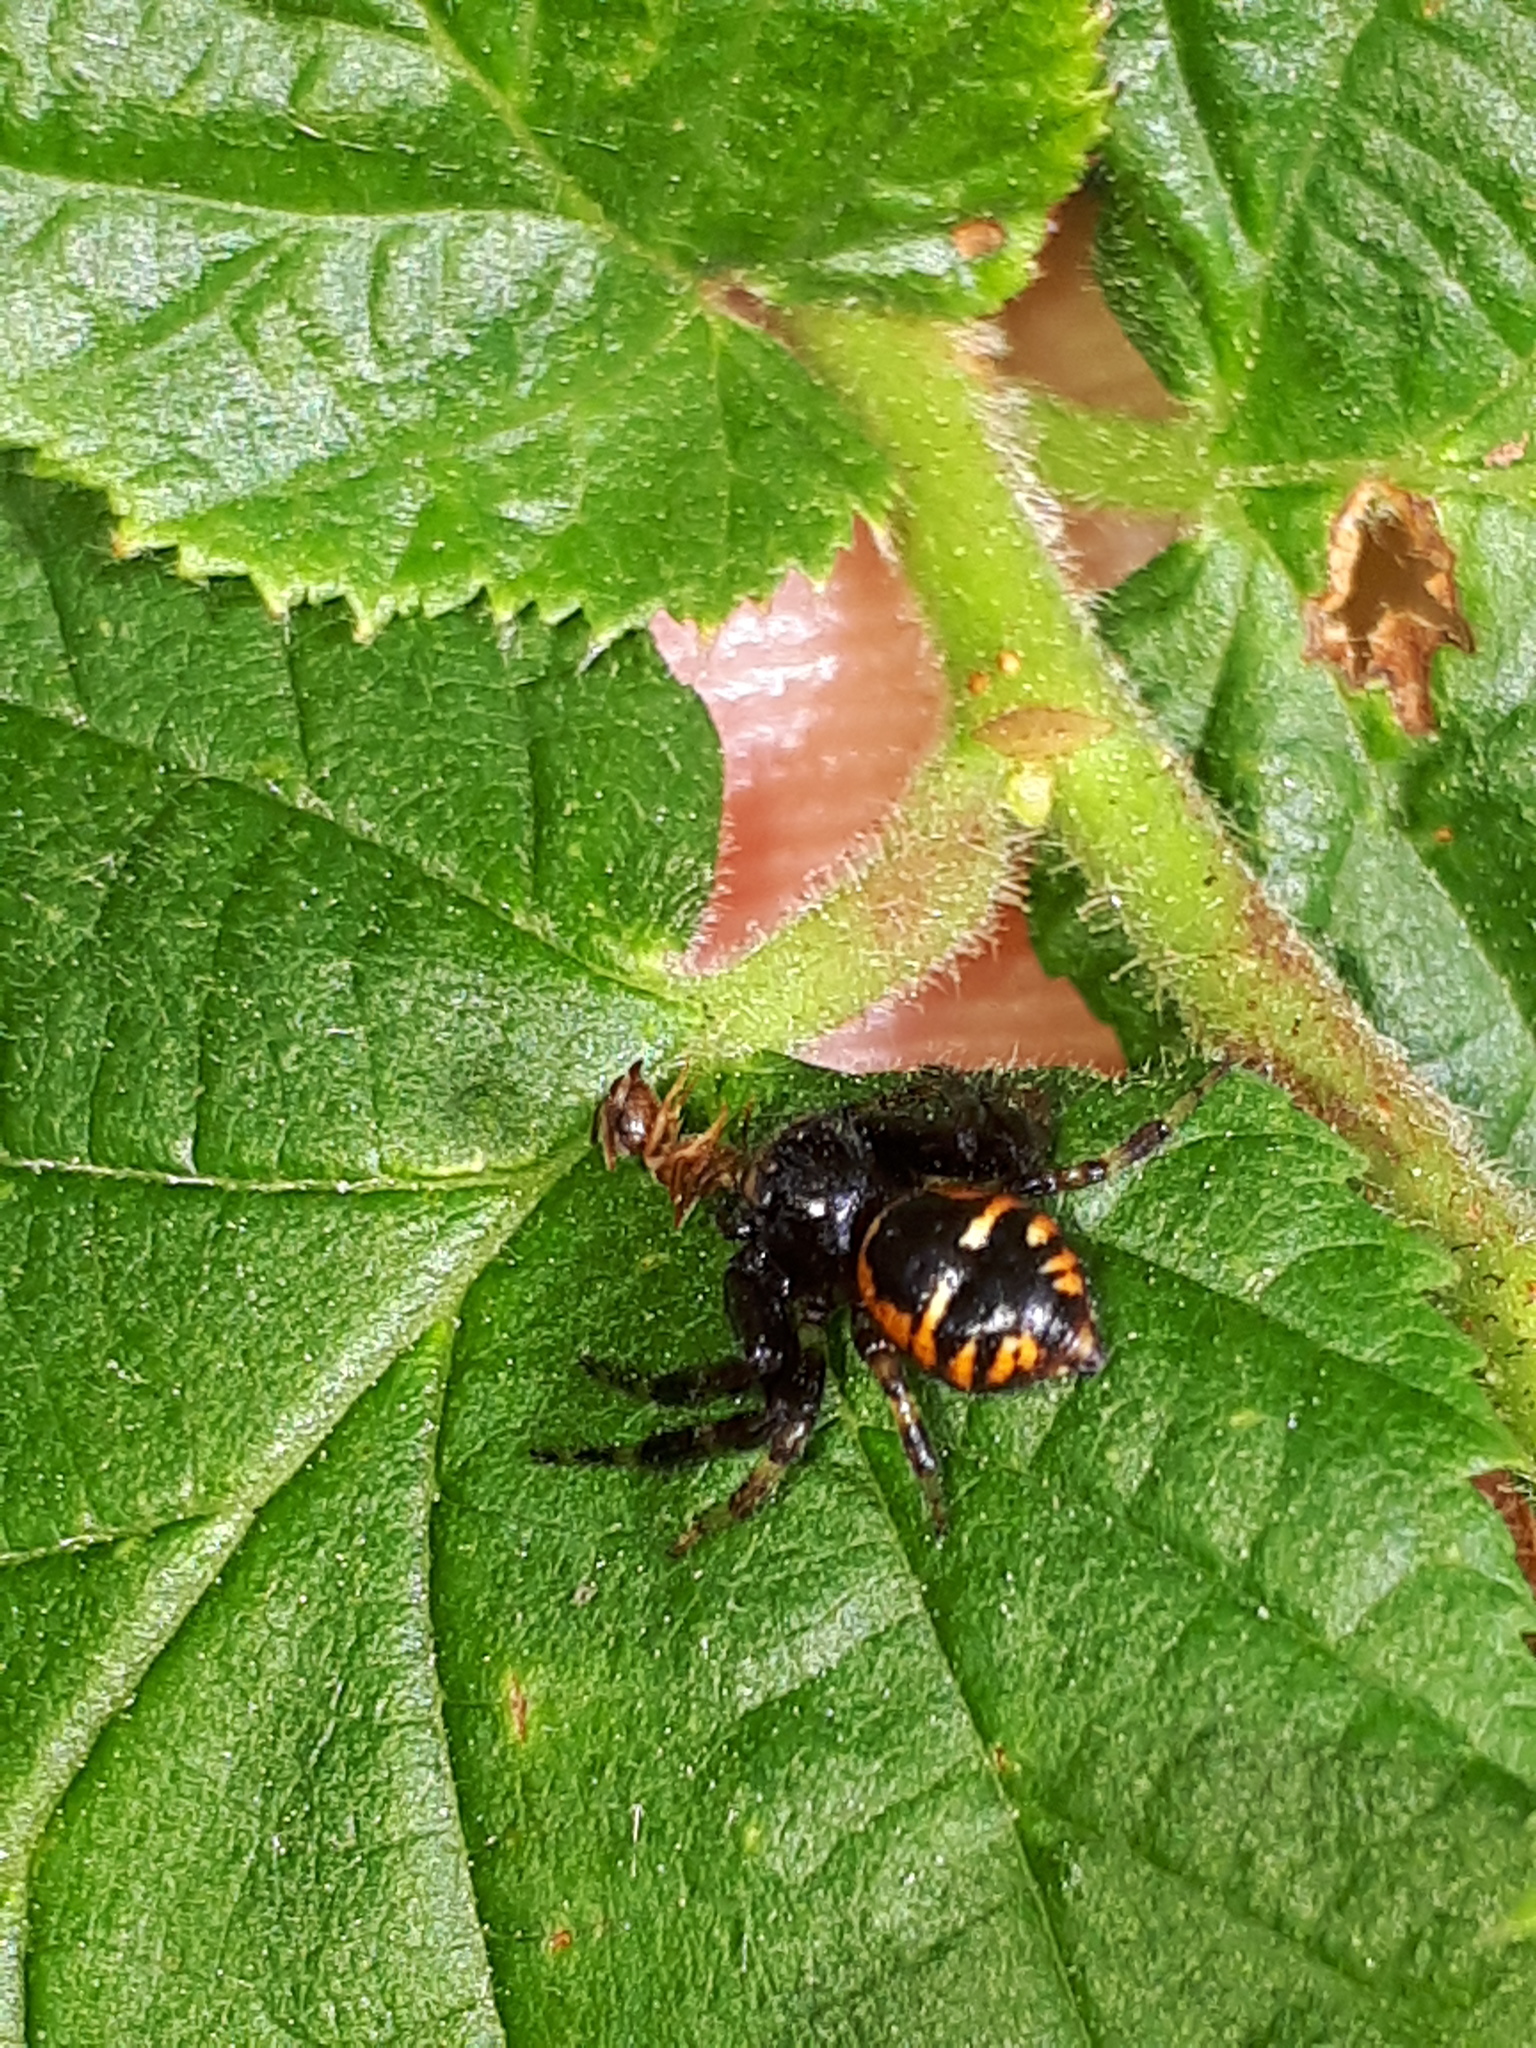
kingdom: Animalia
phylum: Arthropoda
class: Arachnida
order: Araneae
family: Thomisidae
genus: Synema
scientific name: Synema globosum
